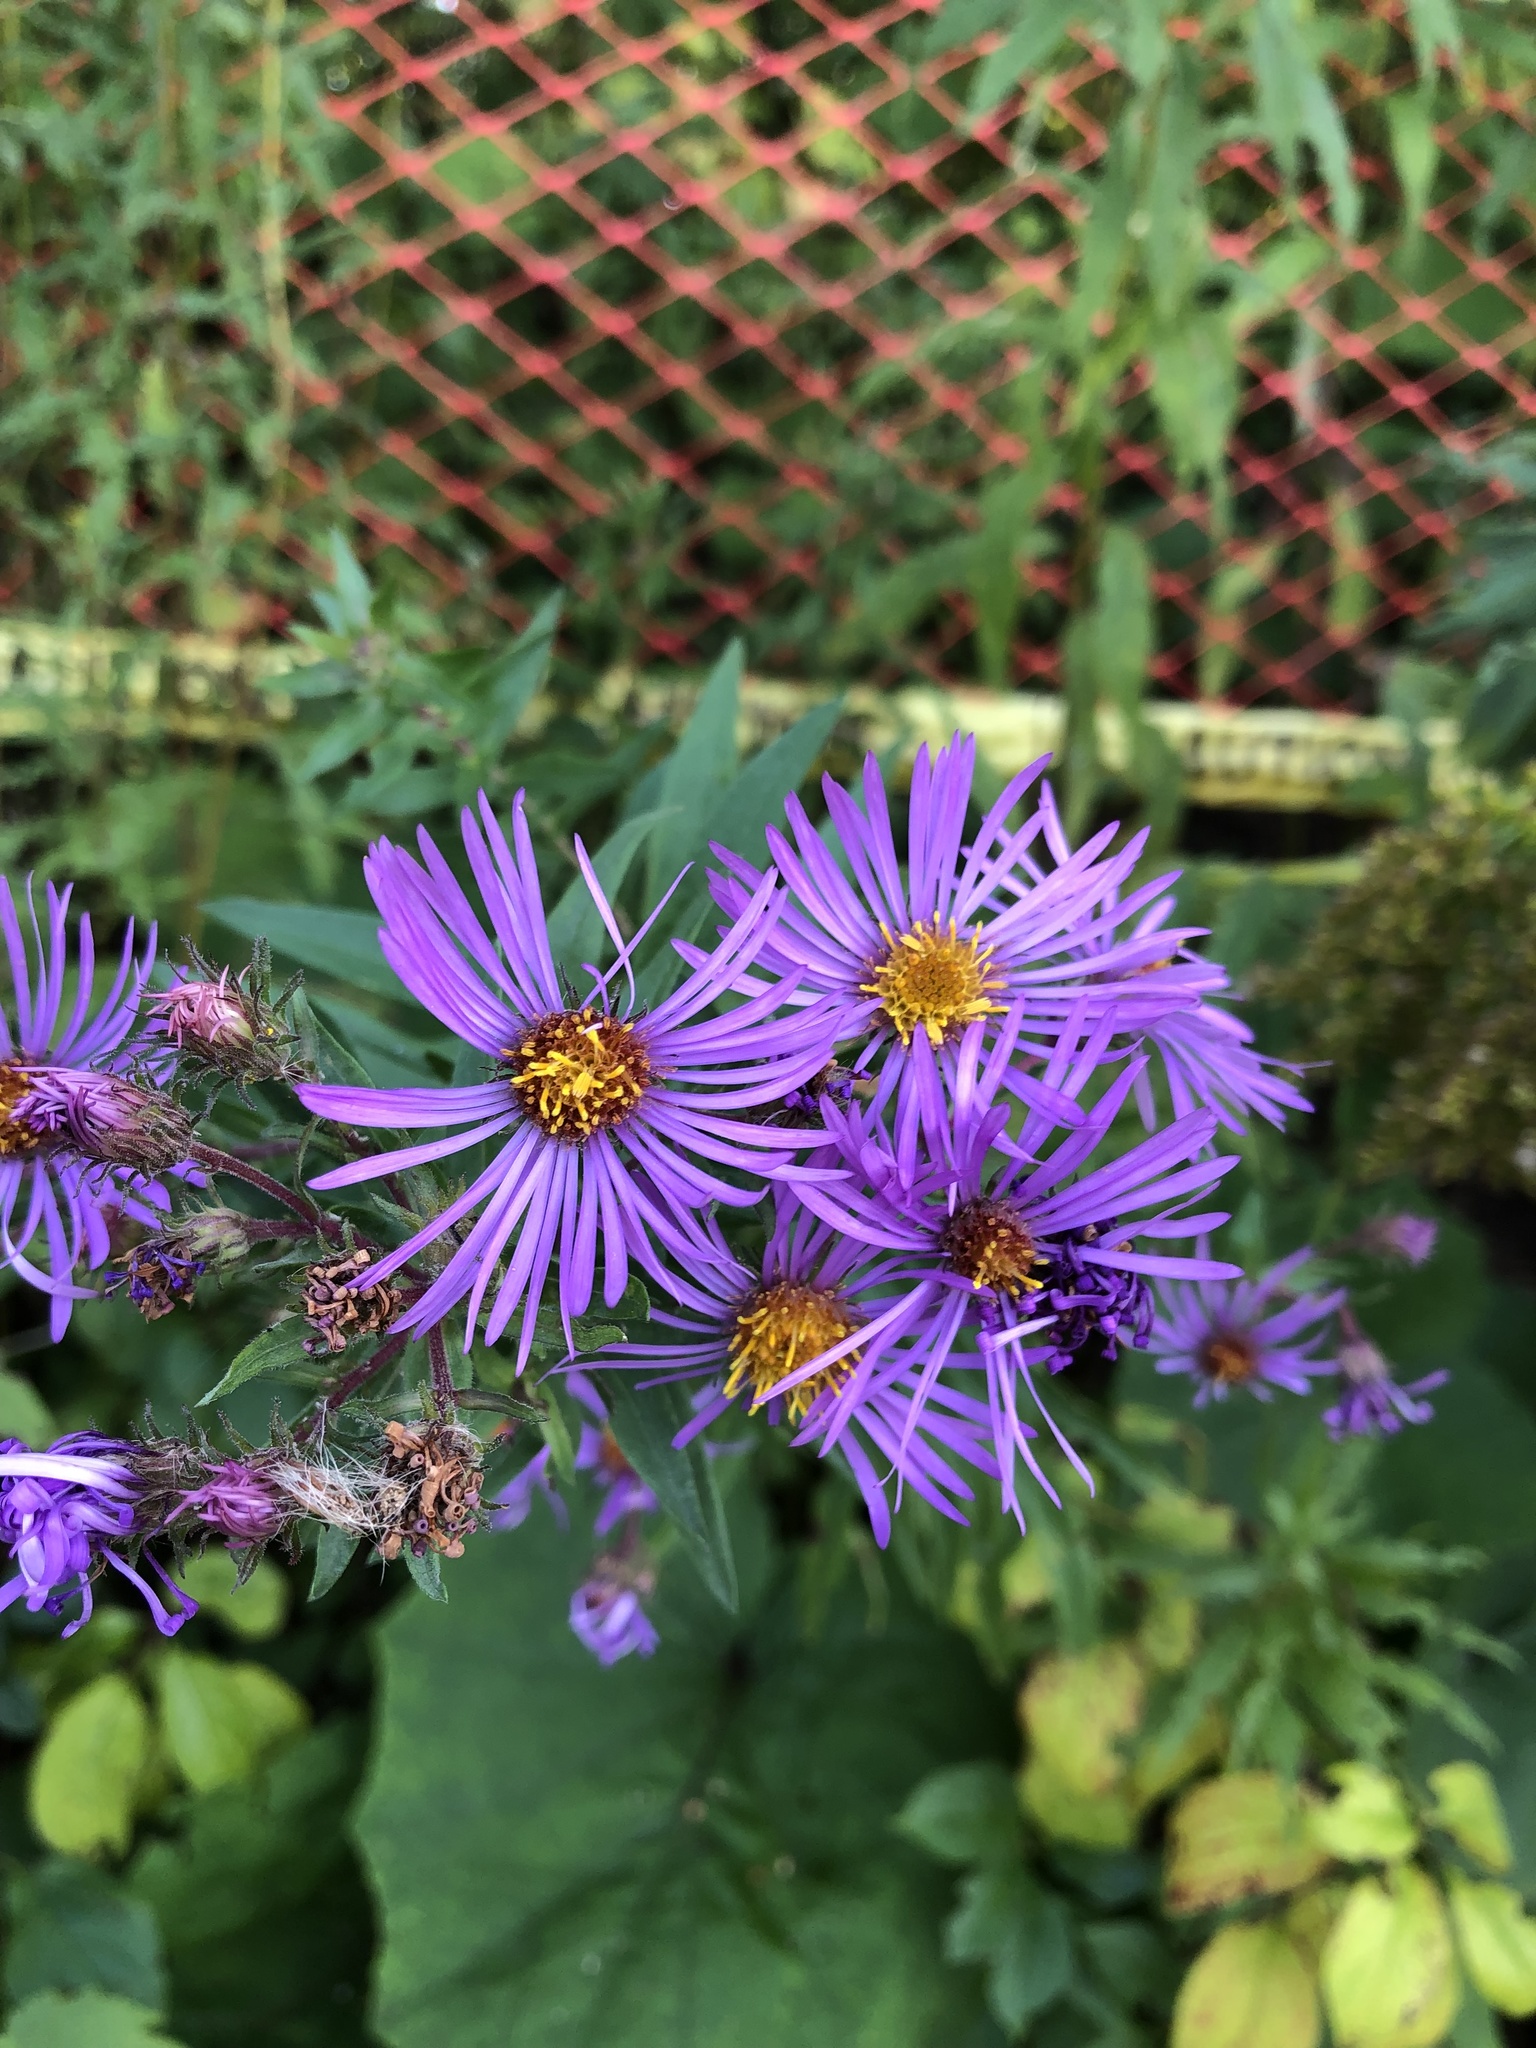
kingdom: Plantae
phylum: Tracheophyta
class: Magnoliopsida
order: Asterales
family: Asteraceae
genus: Symphyotrichum
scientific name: Symphyotrichum novae-angliae
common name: Michaelmas daisy
